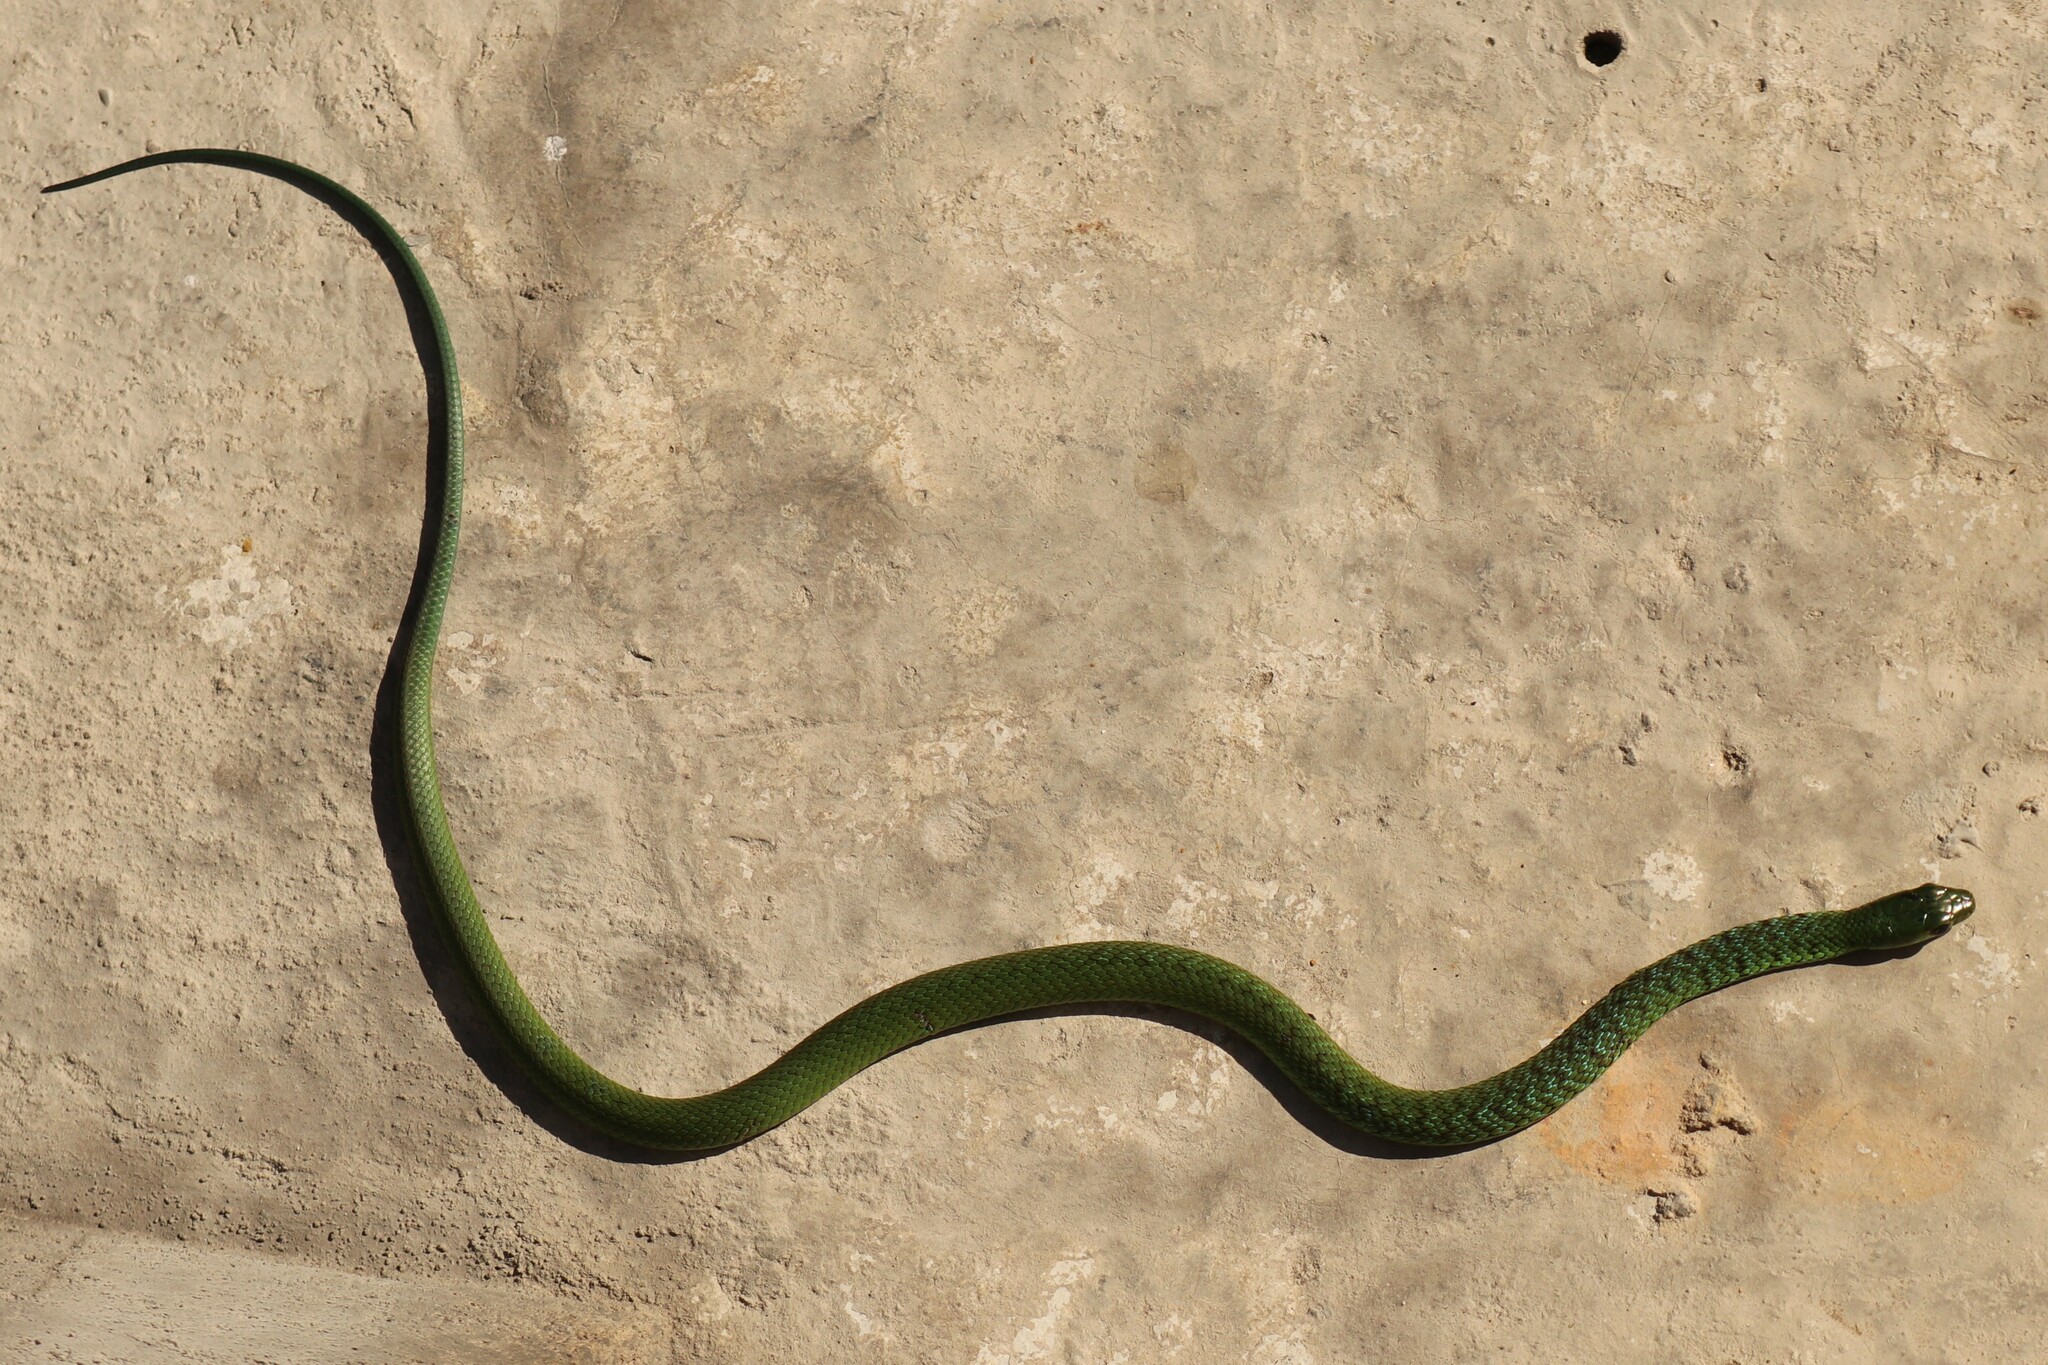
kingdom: Animalia
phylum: Chordata
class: Squamata
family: Colubridae
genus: Philothamnus
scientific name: Philothamnus occidentalis
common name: Western natal green snake
